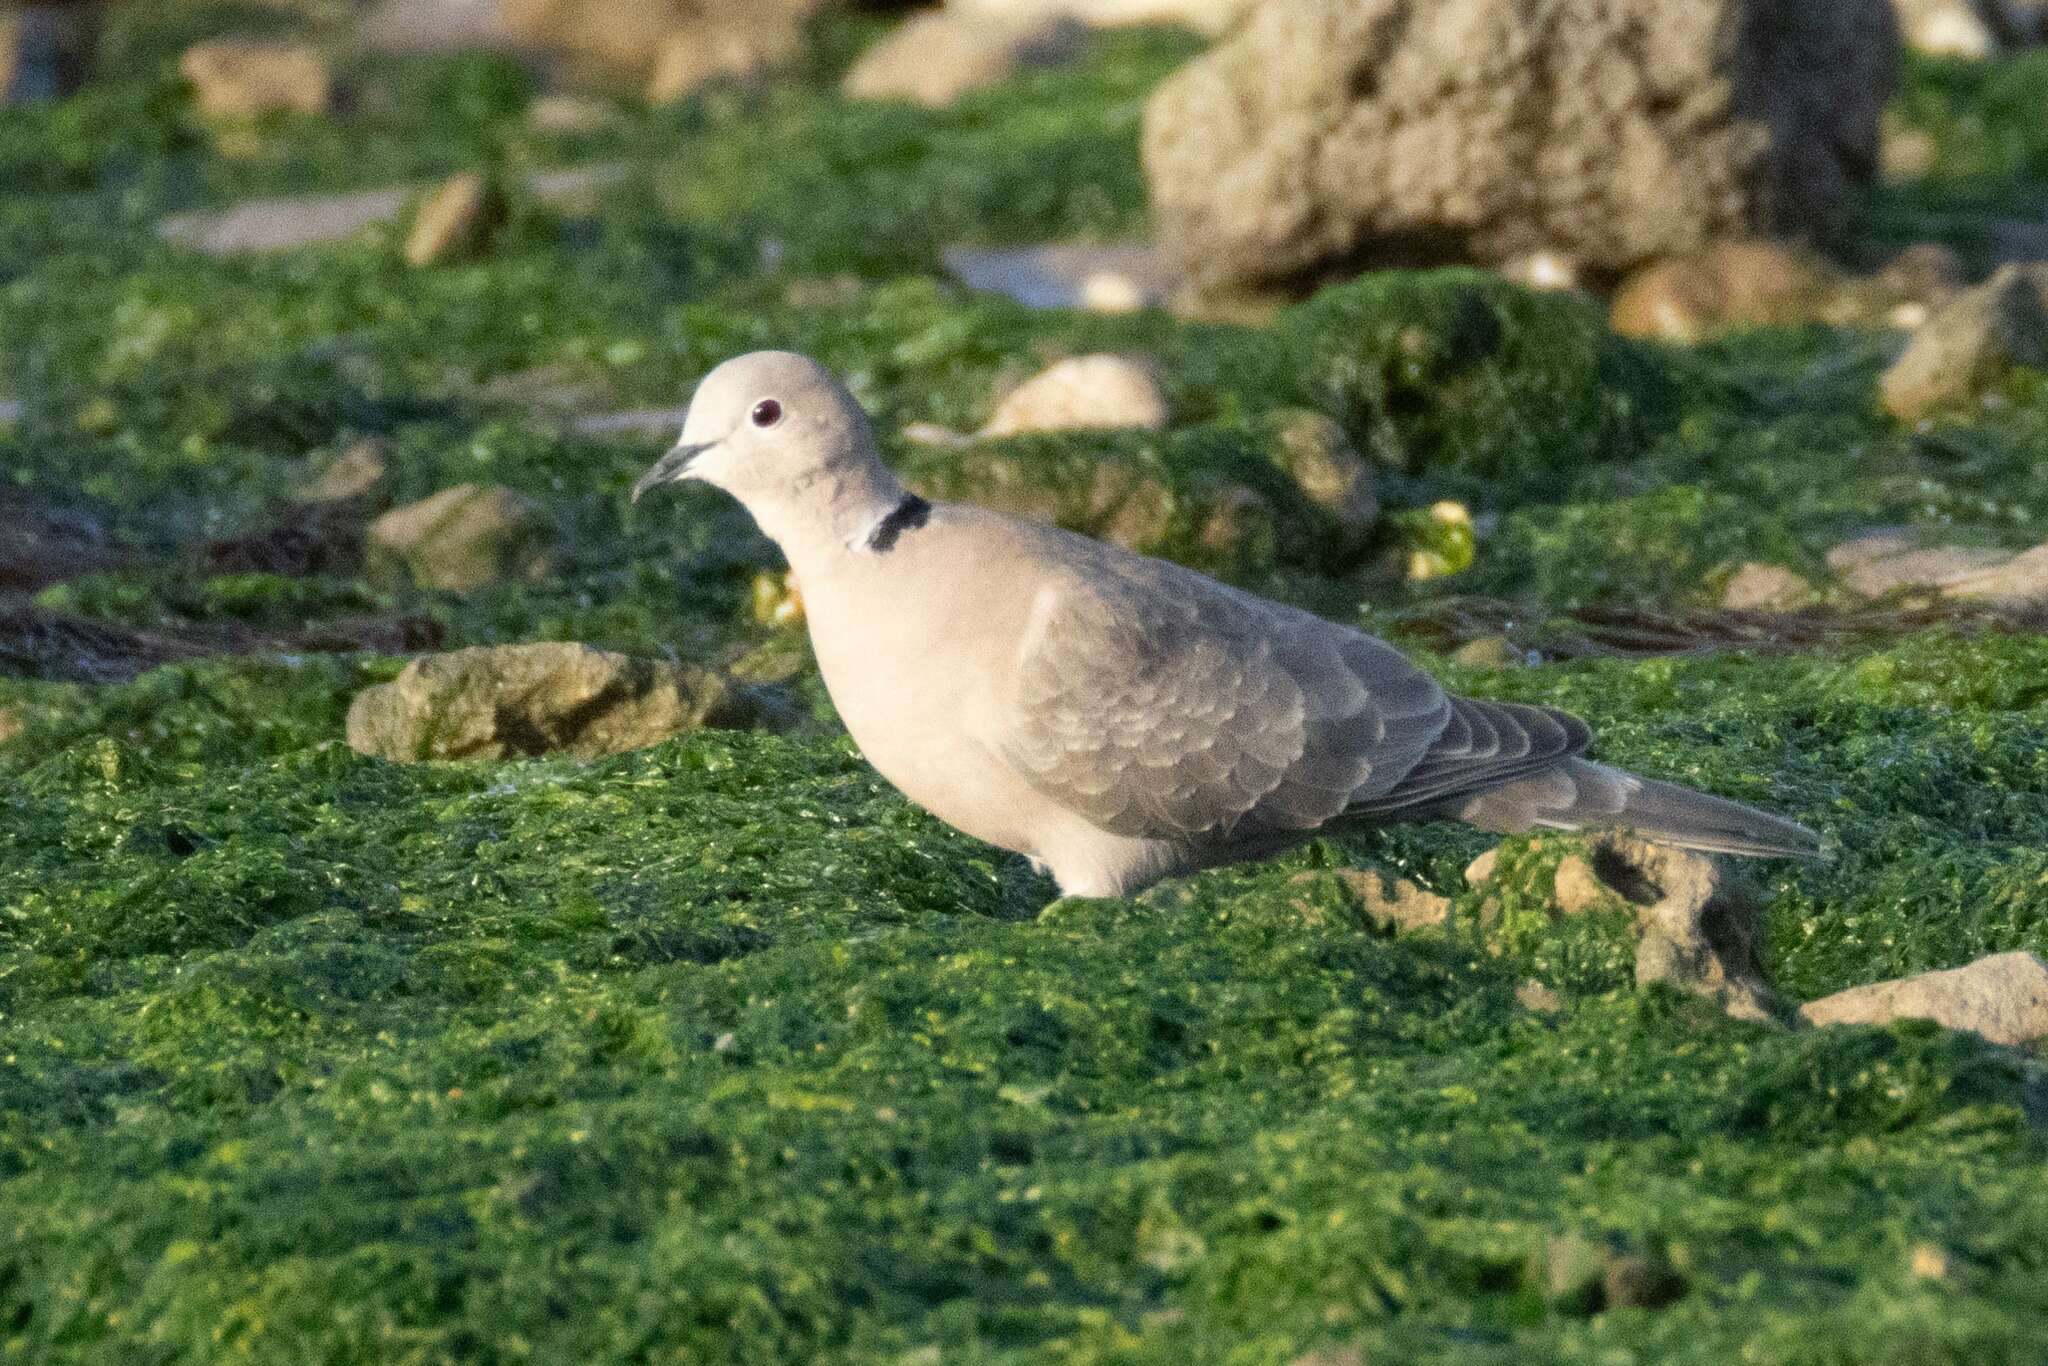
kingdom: Animalia
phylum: Chordata
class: Aves
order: Columbiformes
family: Columbidae
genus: Streptopelia
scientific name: Streptopelia decaocto
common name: Eurasian collared dove
